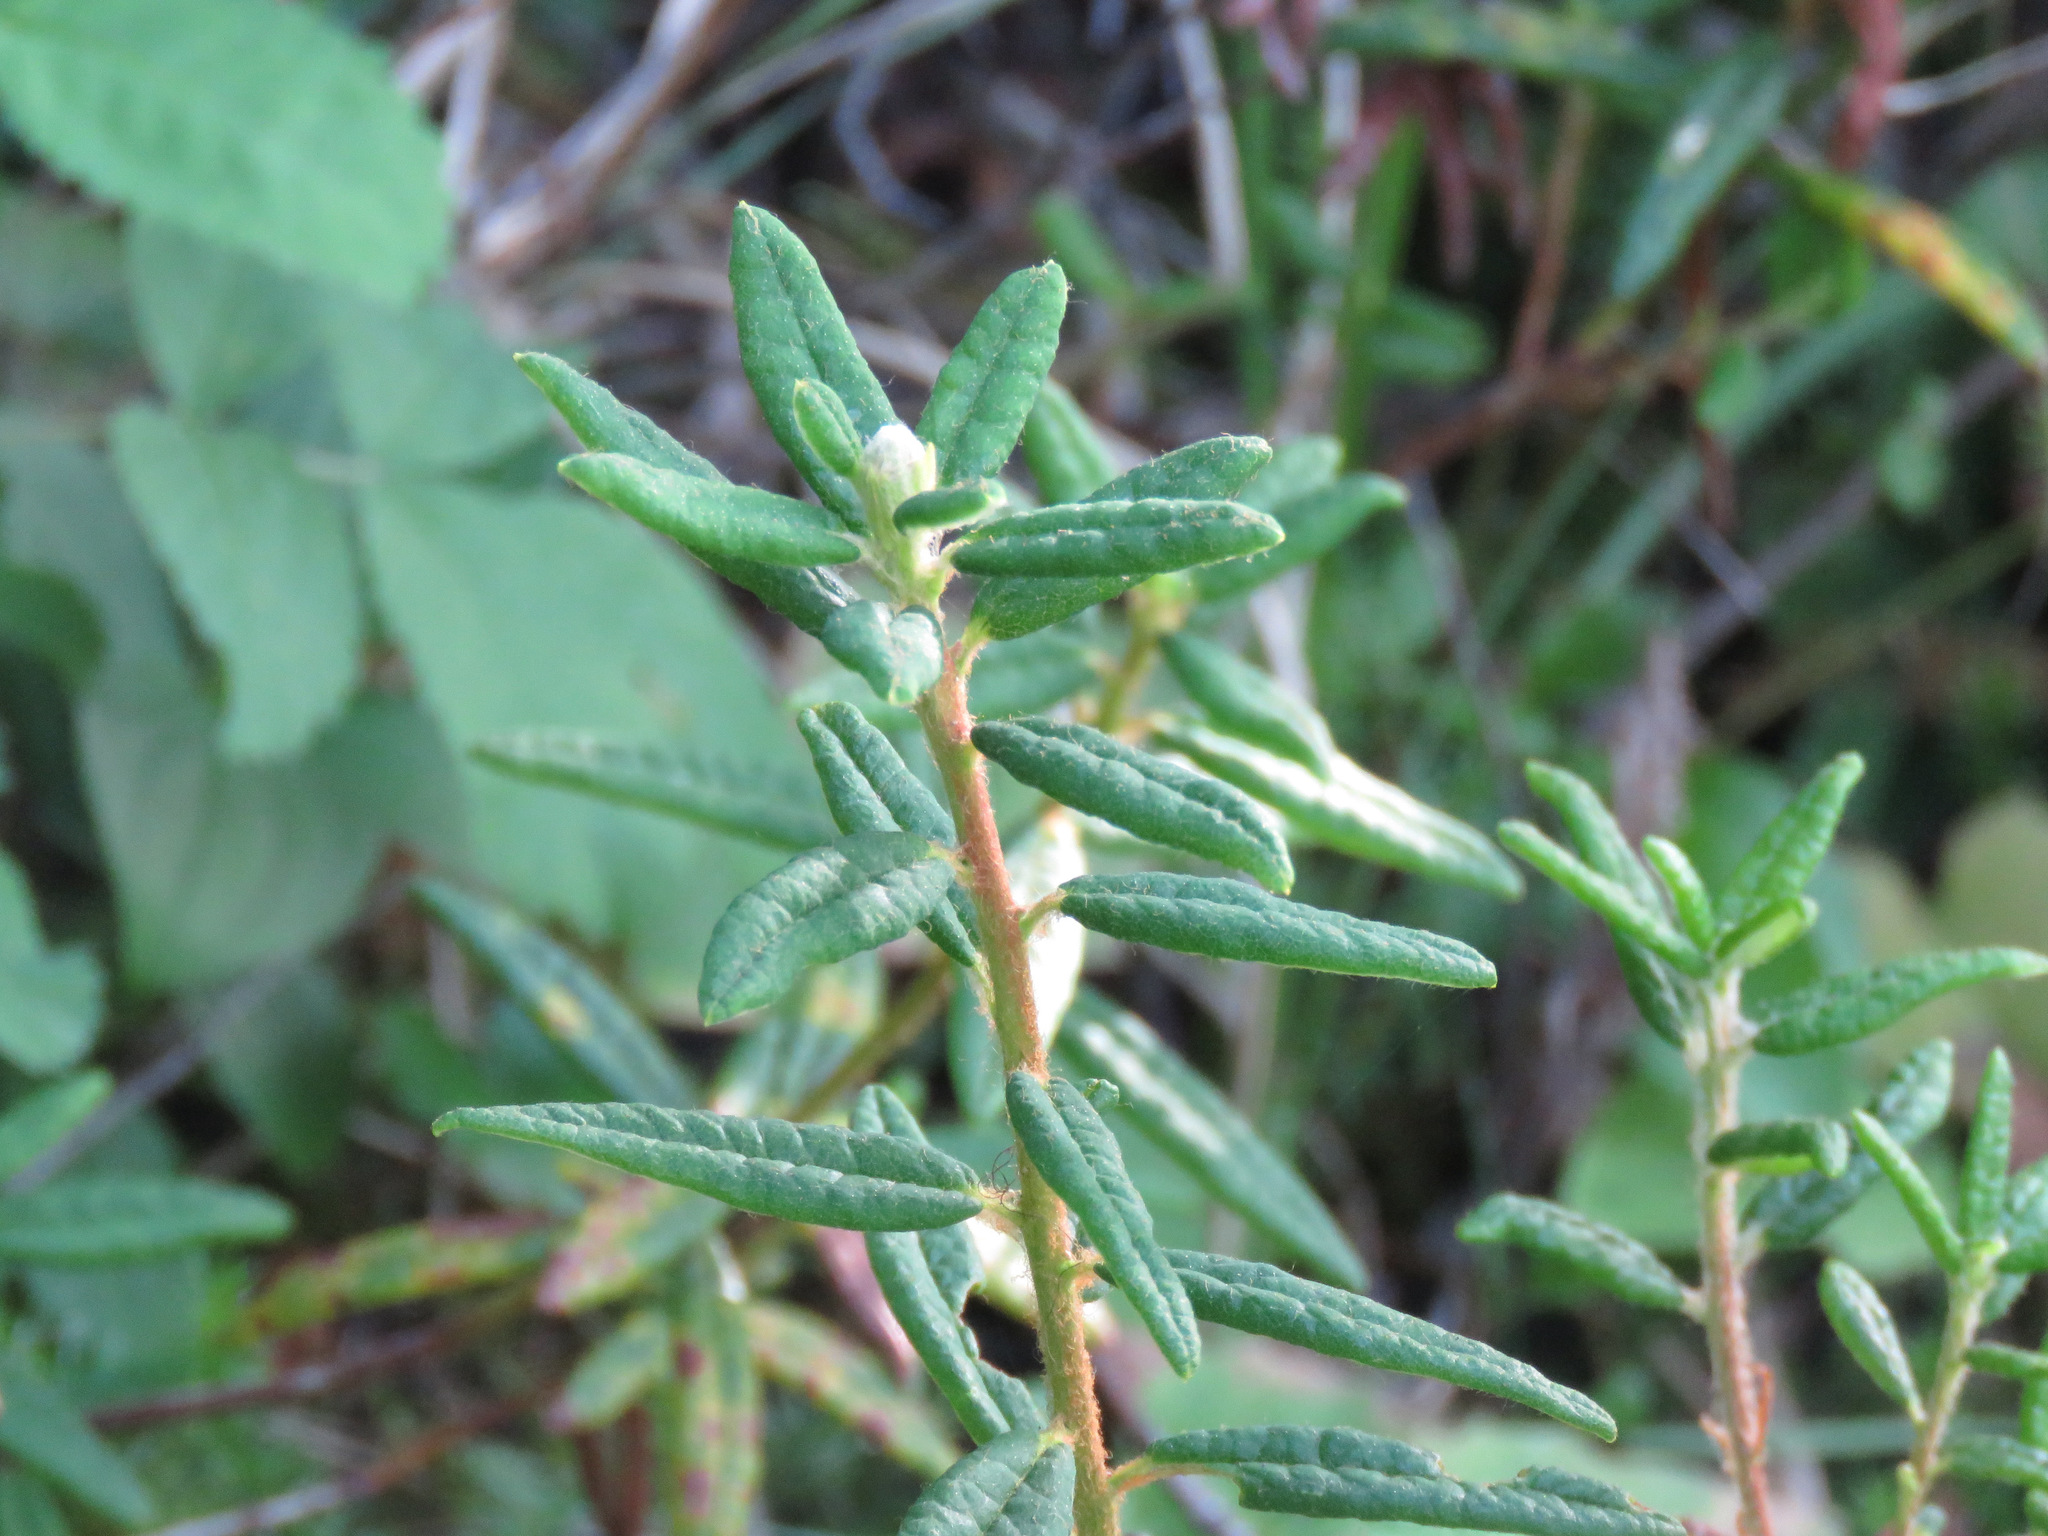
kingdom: Plantae
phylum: Tracheophyta
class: Magnoliopsida
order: Ericales
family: Ericaceae
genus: Rhododendron
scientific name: Rhododendron groenlandicum
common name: Bog labrador tea
